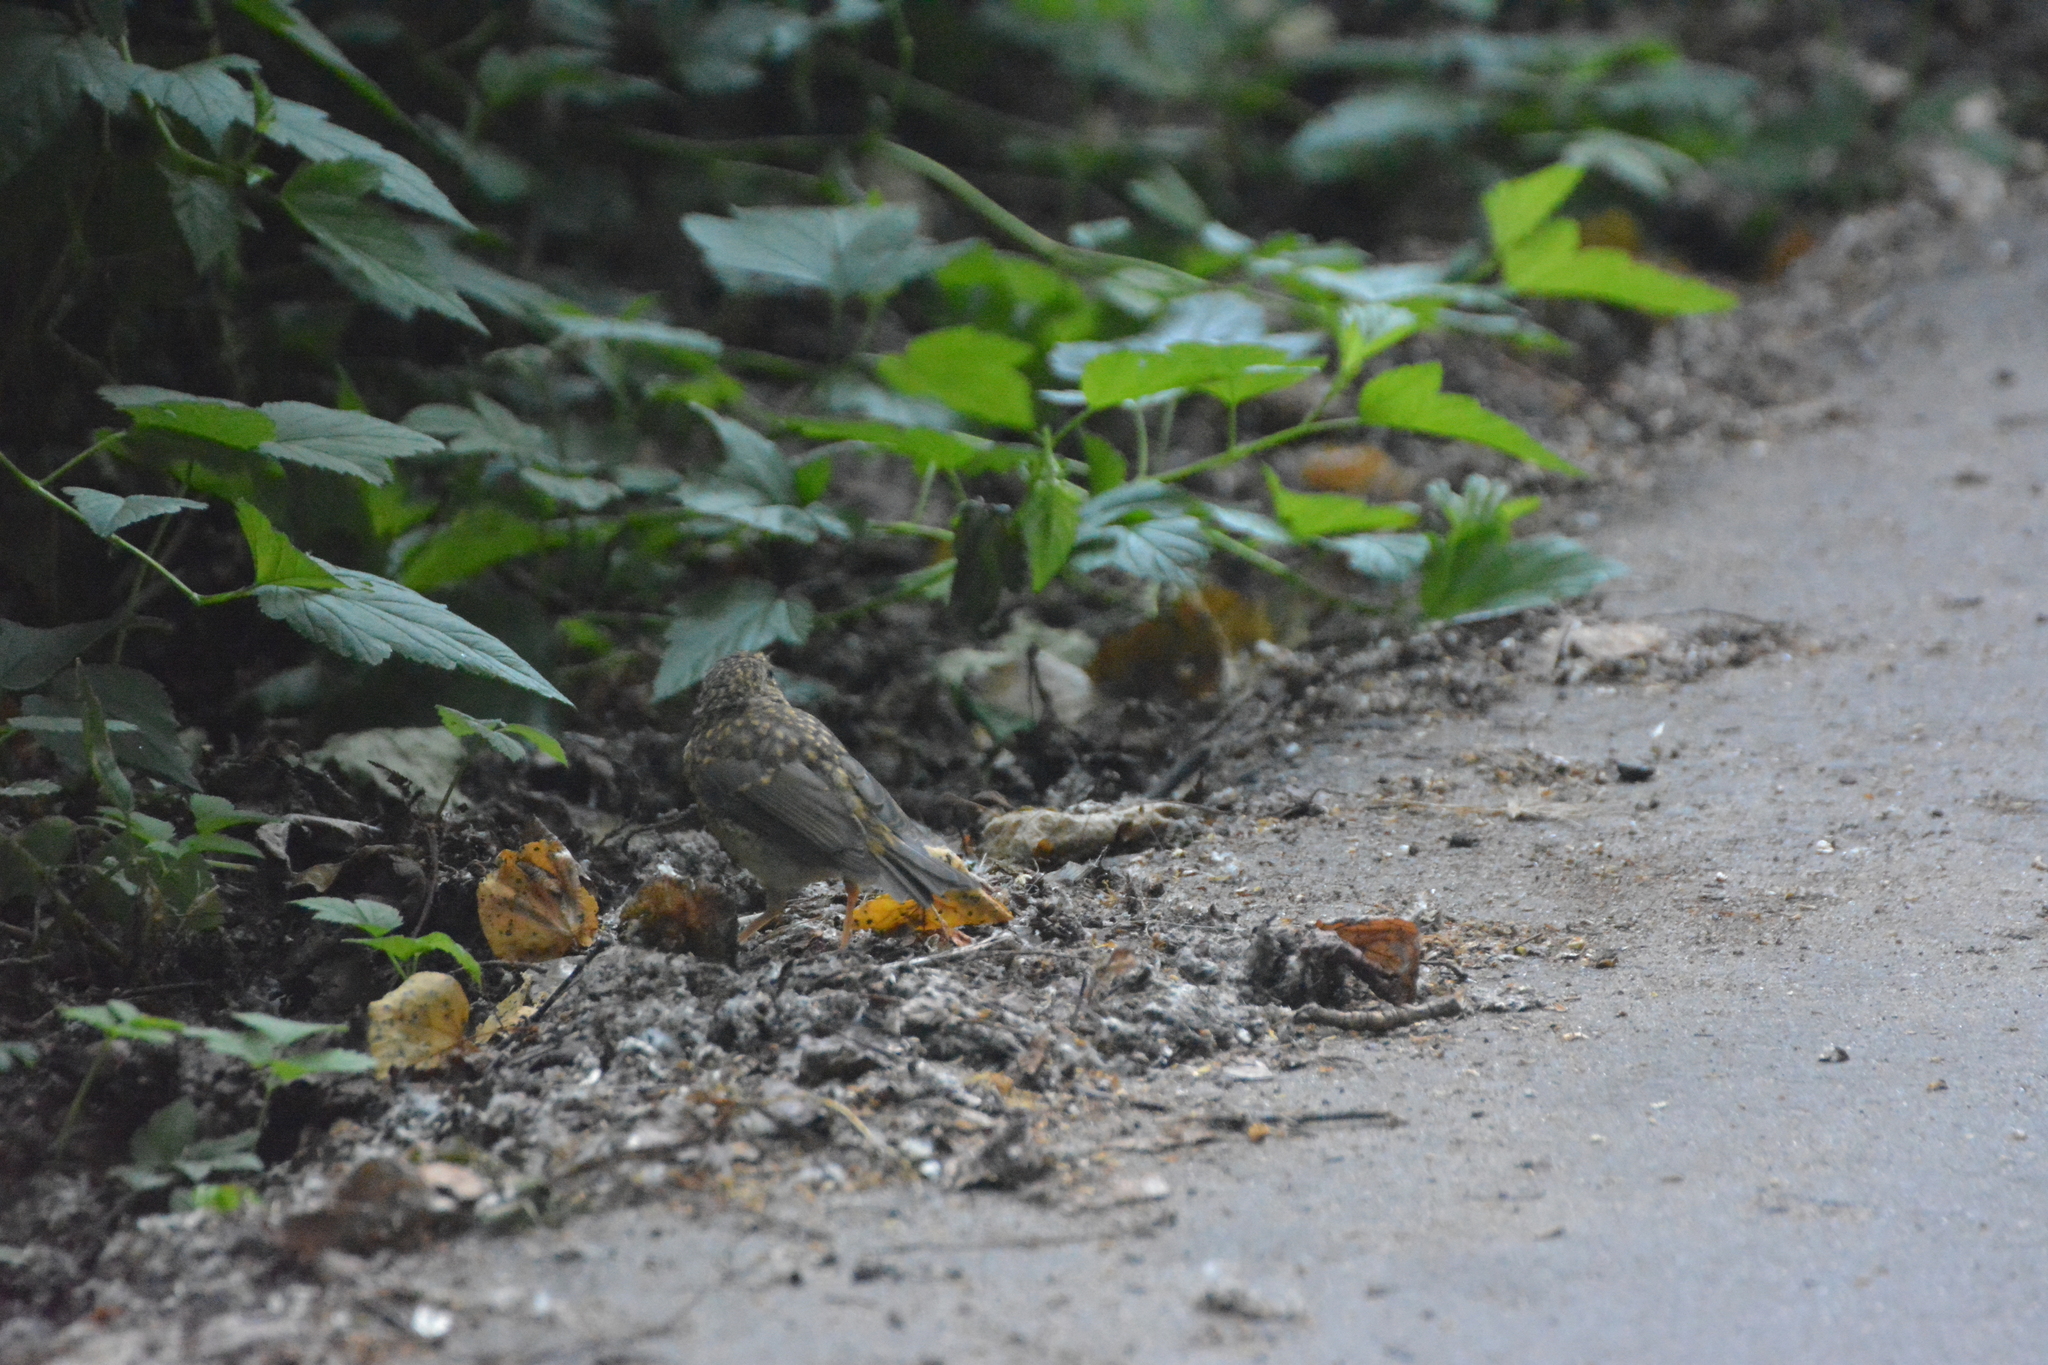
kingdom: Animalia
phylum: Chordata
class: Aves
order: Passeriformes
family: Muscicapidae
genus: Erithacus
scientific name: Erithacus rubecula
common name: European robin
